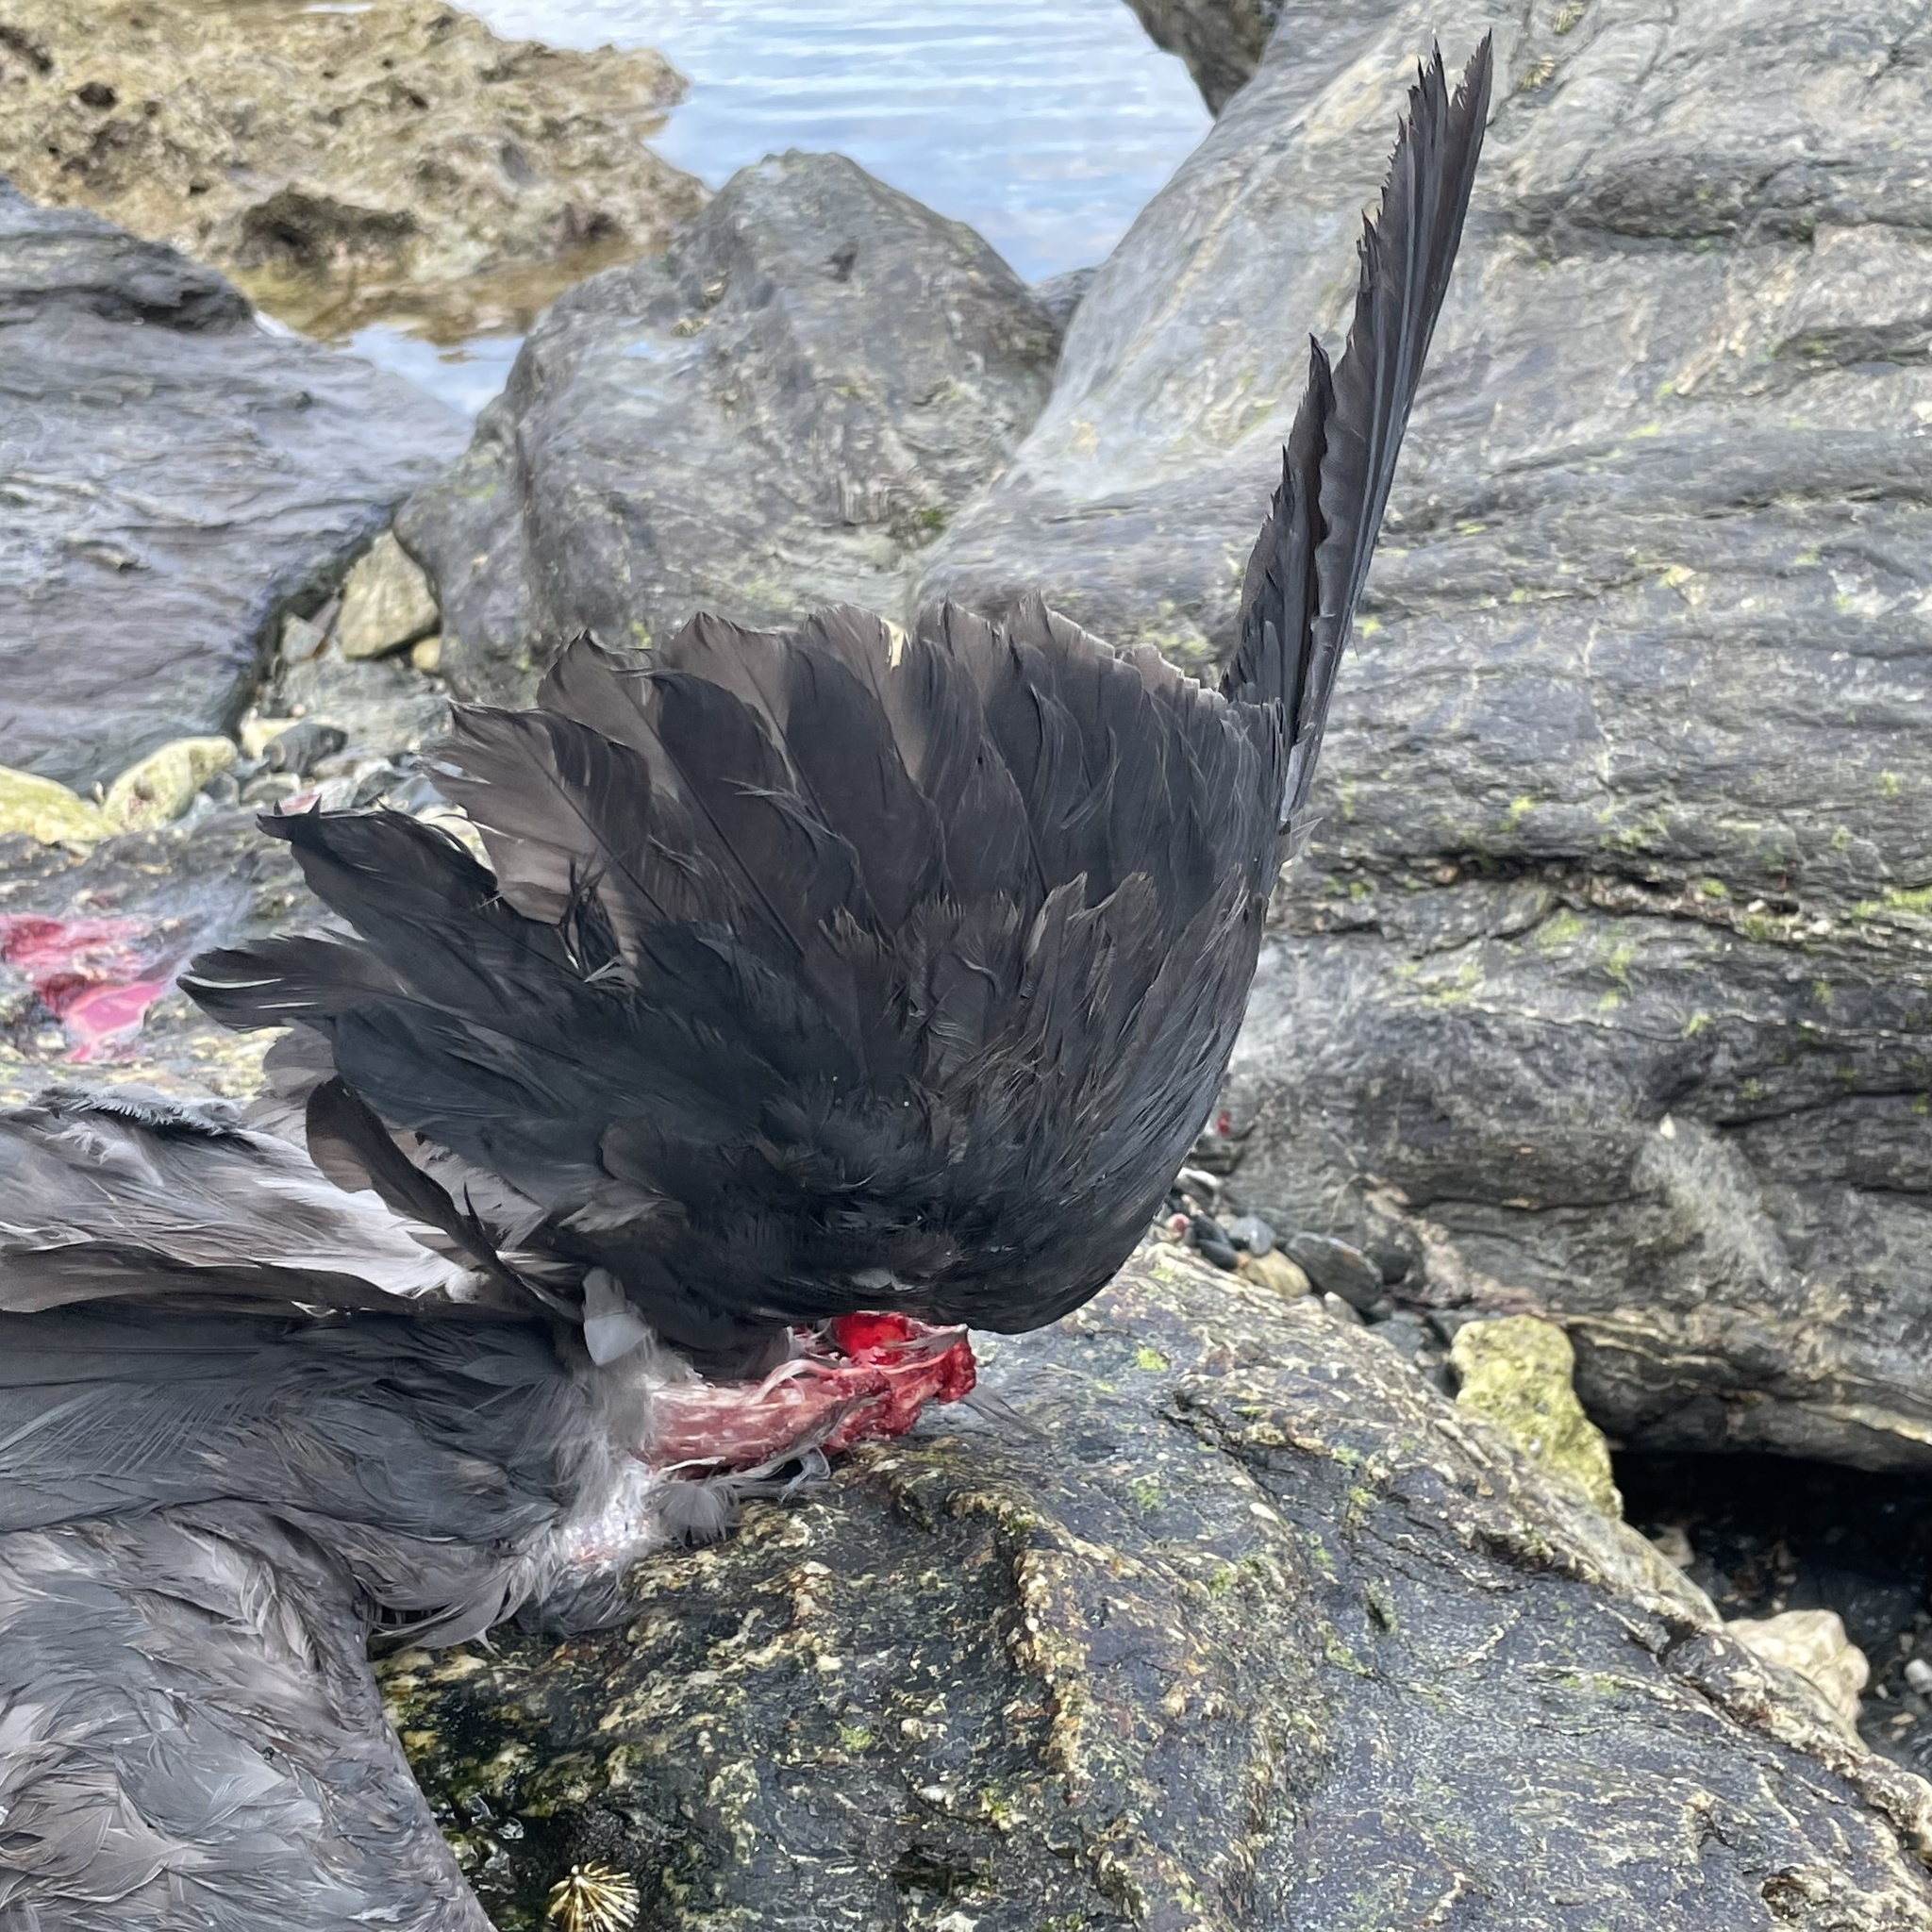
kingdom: Animalia
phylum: Chordata
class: Aves
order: Pelecaniformes
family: Ardeidae
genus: Egretta
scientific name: Egretta sacra
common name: Pacific reef heron
